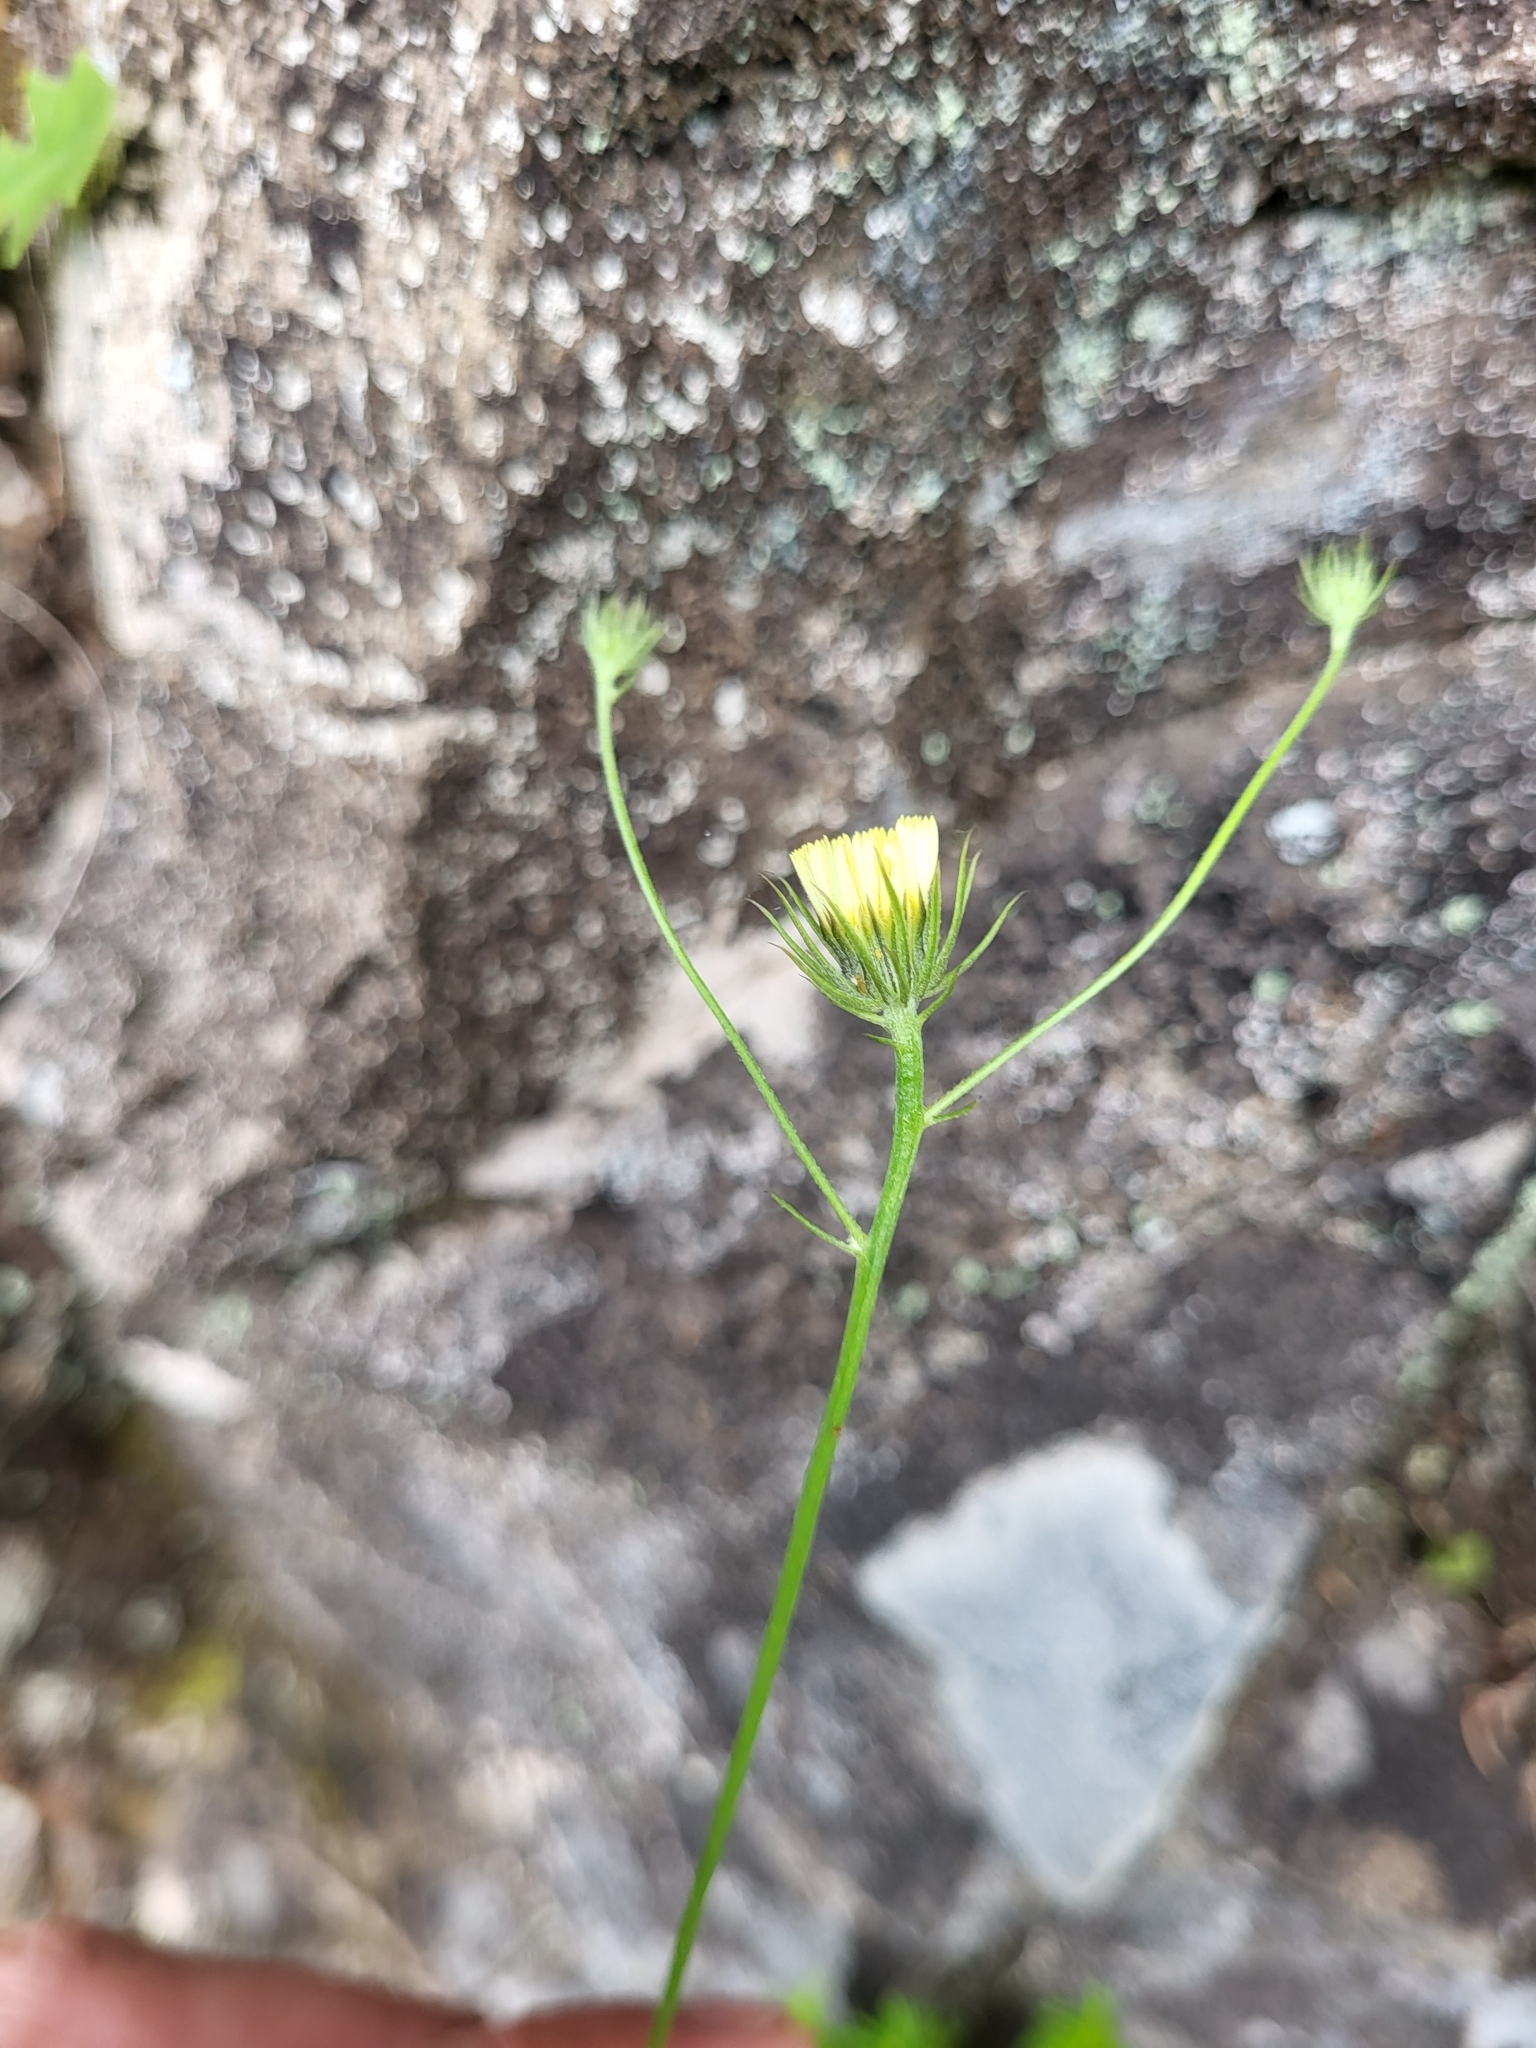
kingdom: Plantae
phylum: Tracheophyta
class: Magnoliopsida
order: Asterales
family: Asteraceae
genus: Tolpis
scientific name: Tolpis barbata
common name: Yellow hawkweed
